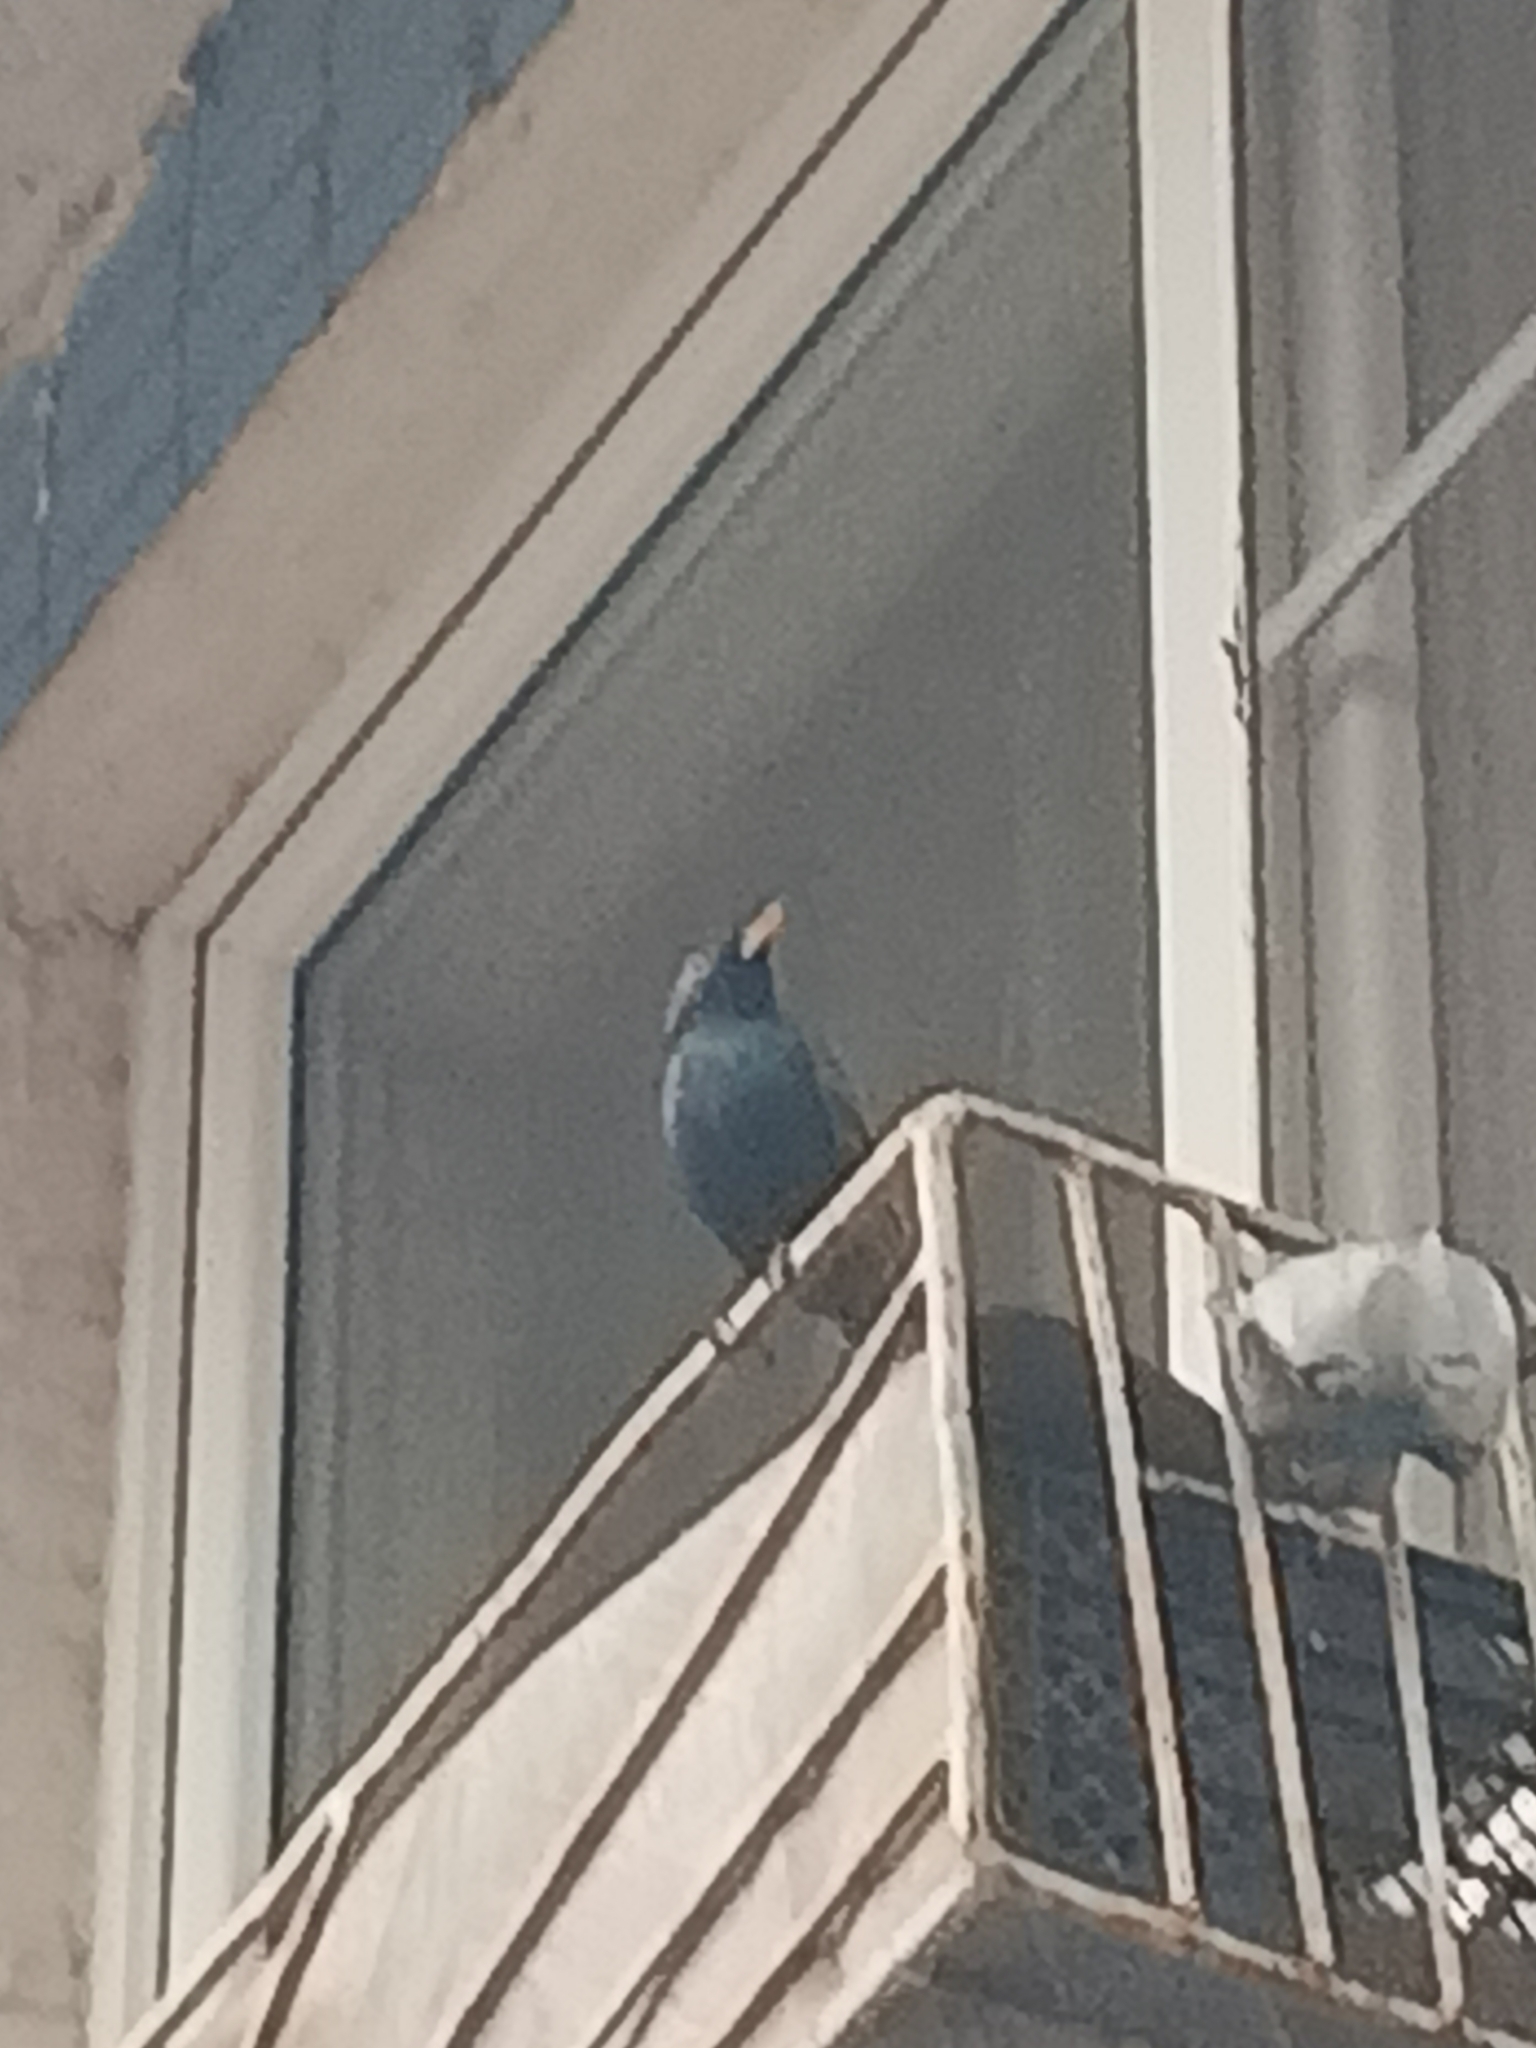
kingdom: Animalia
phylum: Chordata
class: Aves
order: Passeriformes
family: Sturnidae
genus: Sturnus
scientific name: Sturnus vulgaris
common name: Common starling
